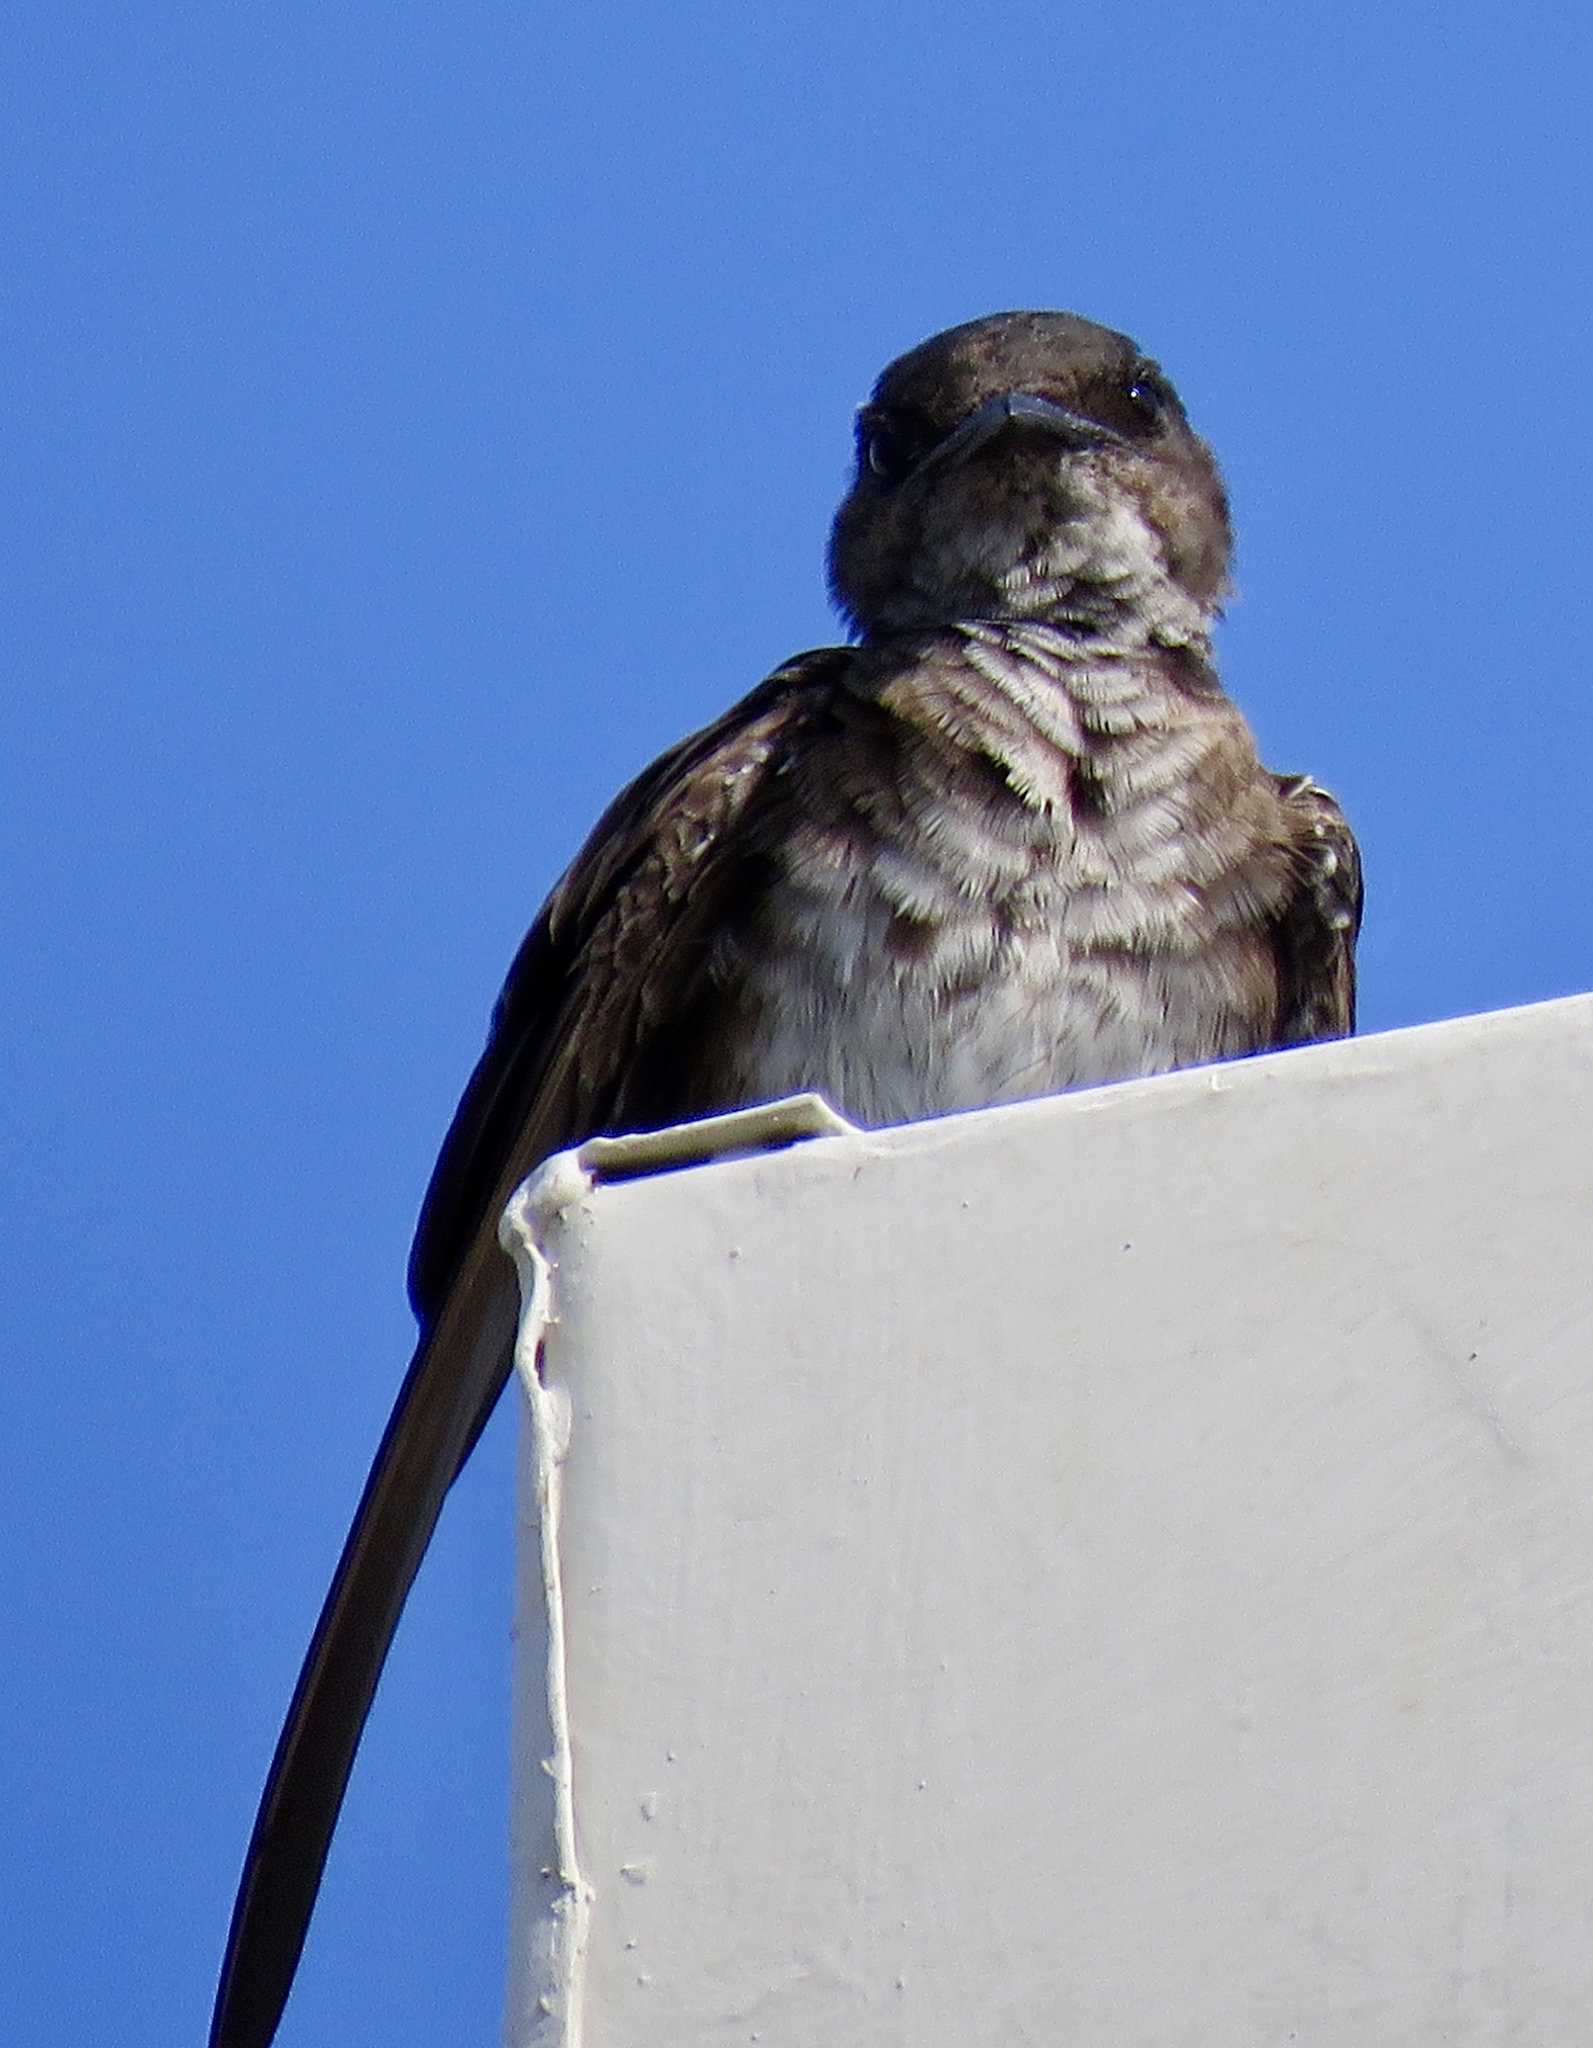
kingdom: Animalia
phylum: Chordata
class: Aves
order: Passeriformes
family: Hirundinidae
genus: Progne
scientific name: Progne chalybea
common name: Grey-breasted martin
